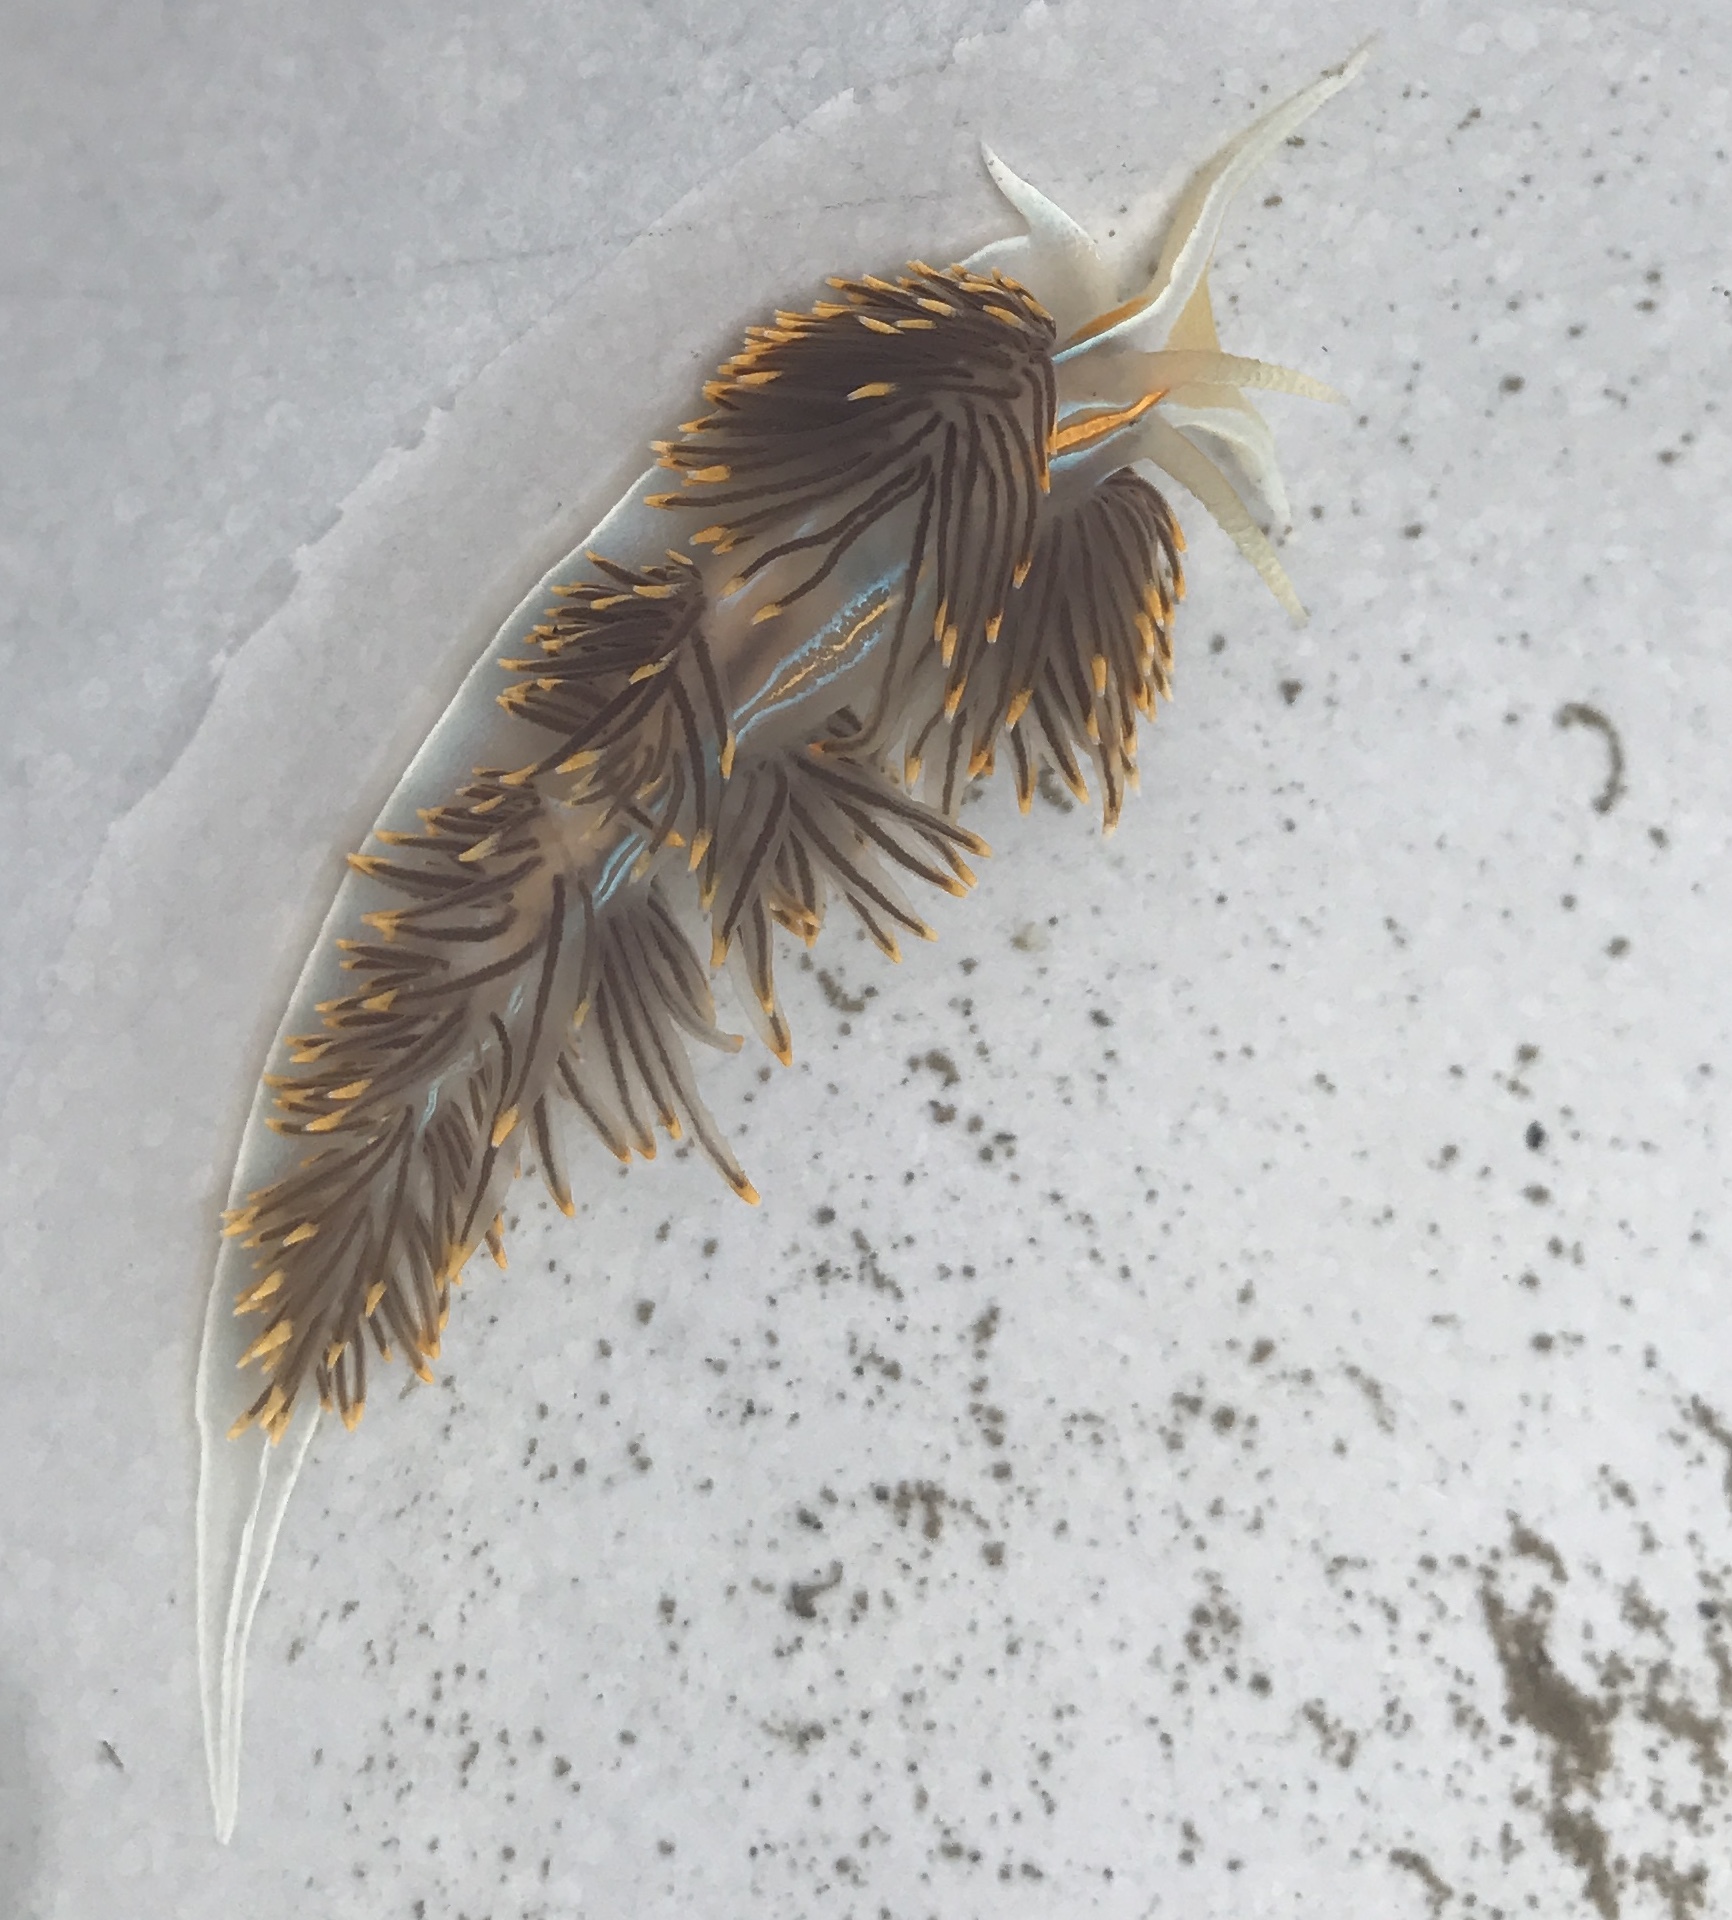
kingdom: Animalia
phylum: Mollusca
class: Gastropoda
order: Nudibranchia
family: Myrrhinidae
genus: Hermissenda
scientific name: Hermissenda opalescens
